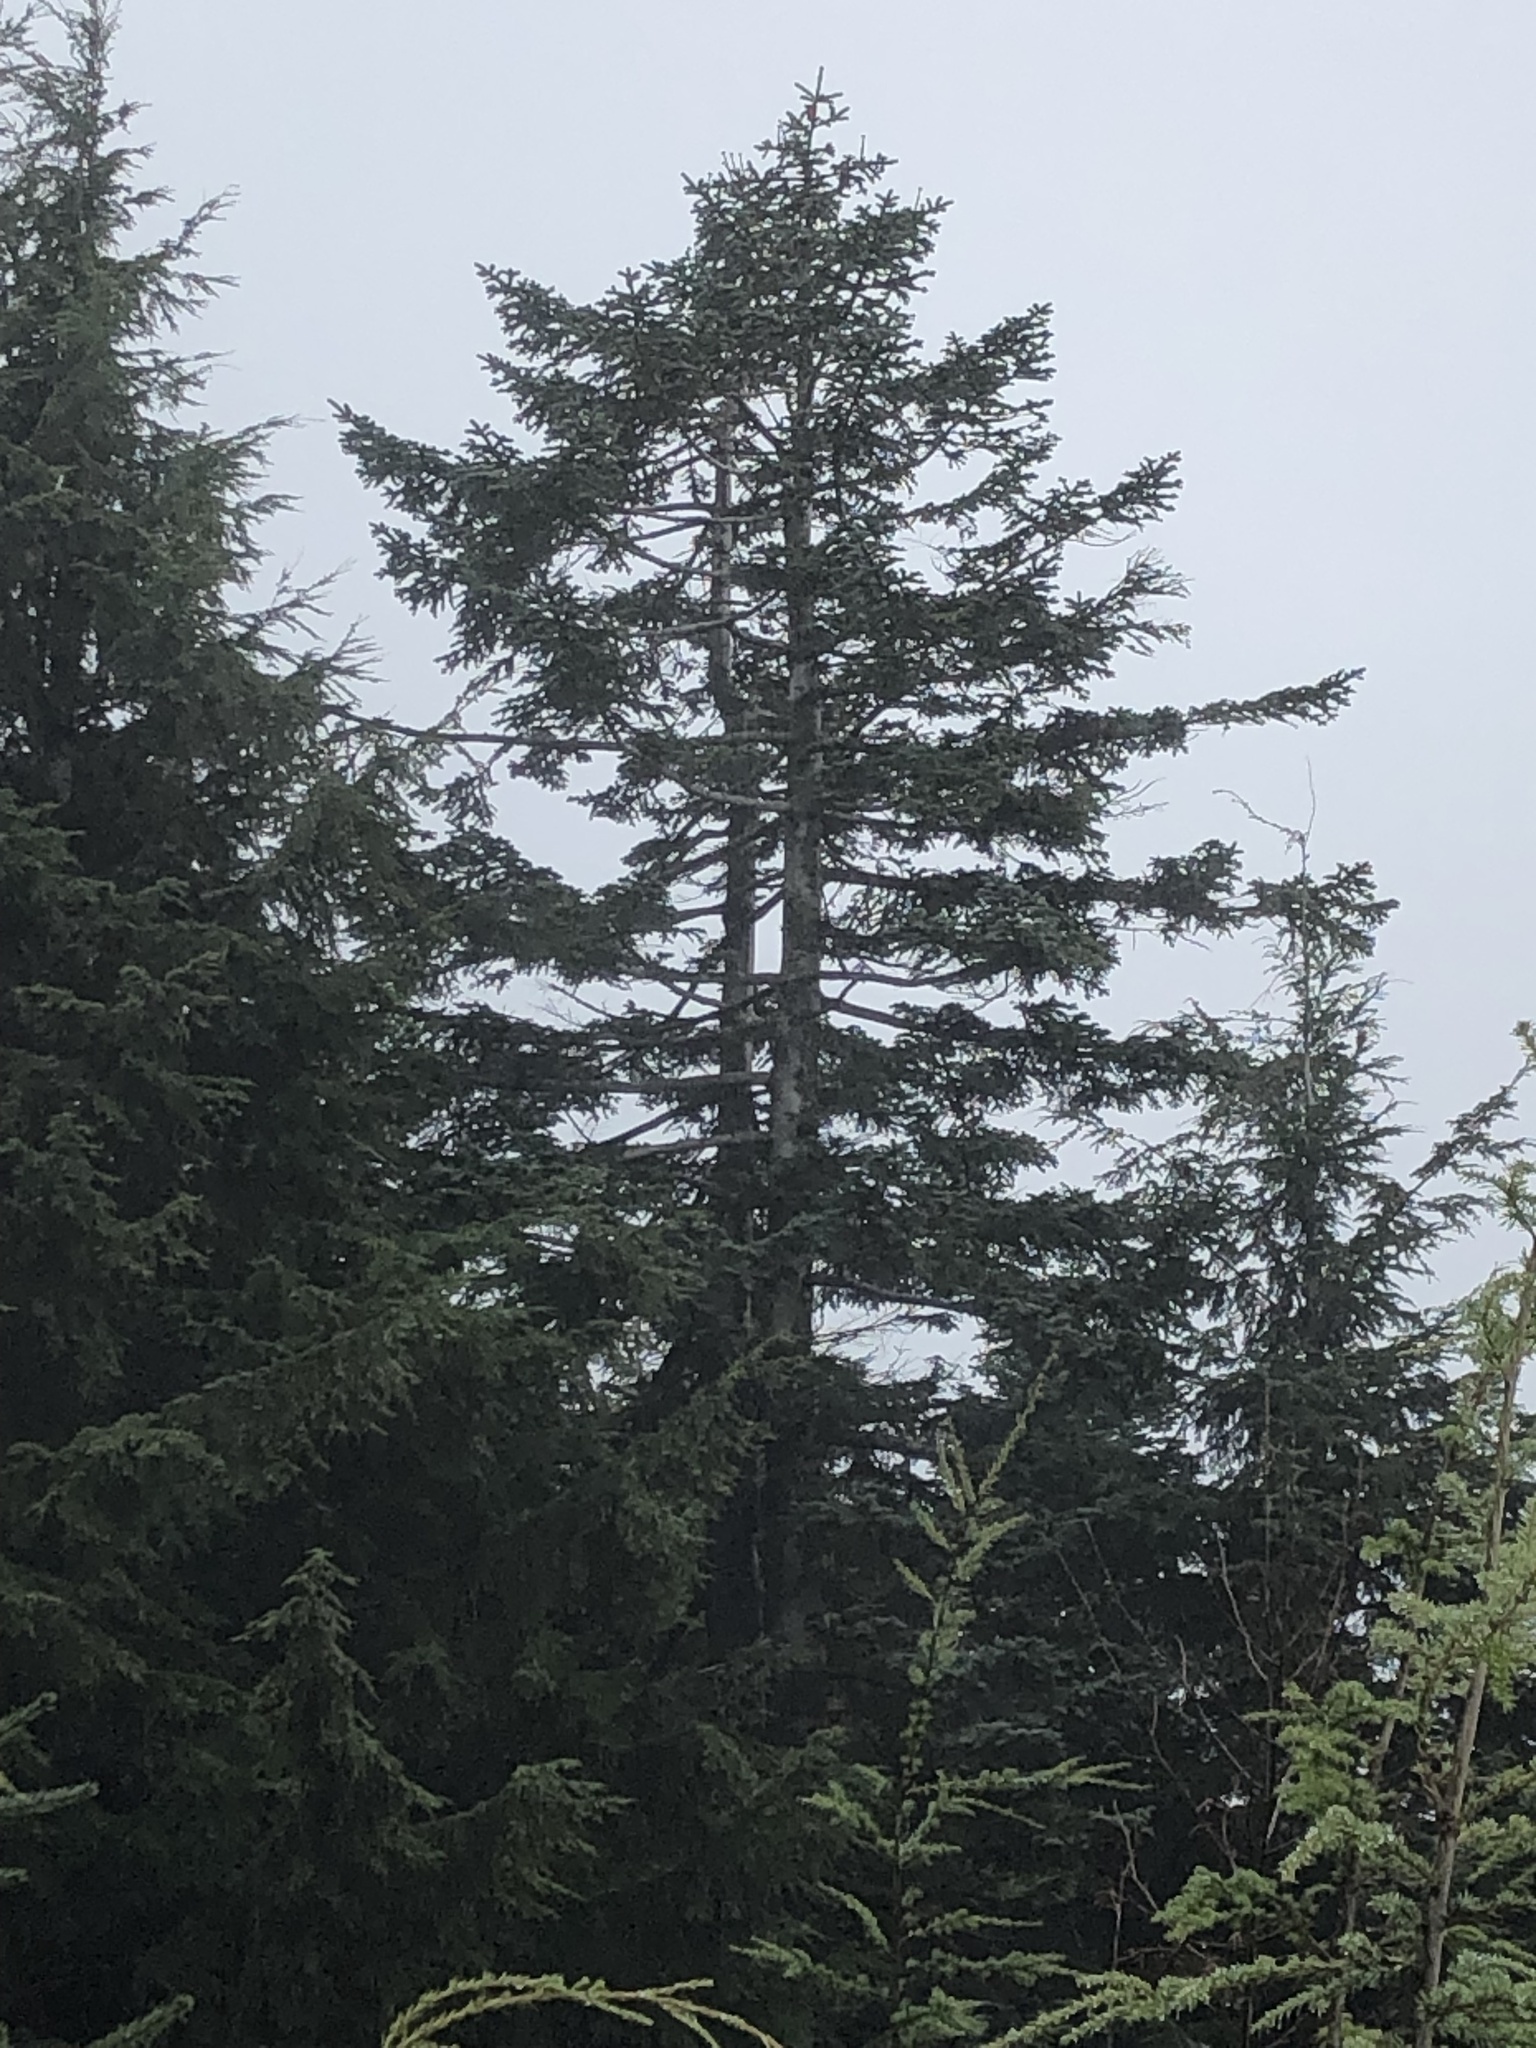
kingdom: Plantae
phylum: Tracheophyta
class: Pinopsida
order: Pinales
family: Pinaceae
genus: Abies
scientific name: Abies procera
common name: Noble fir
